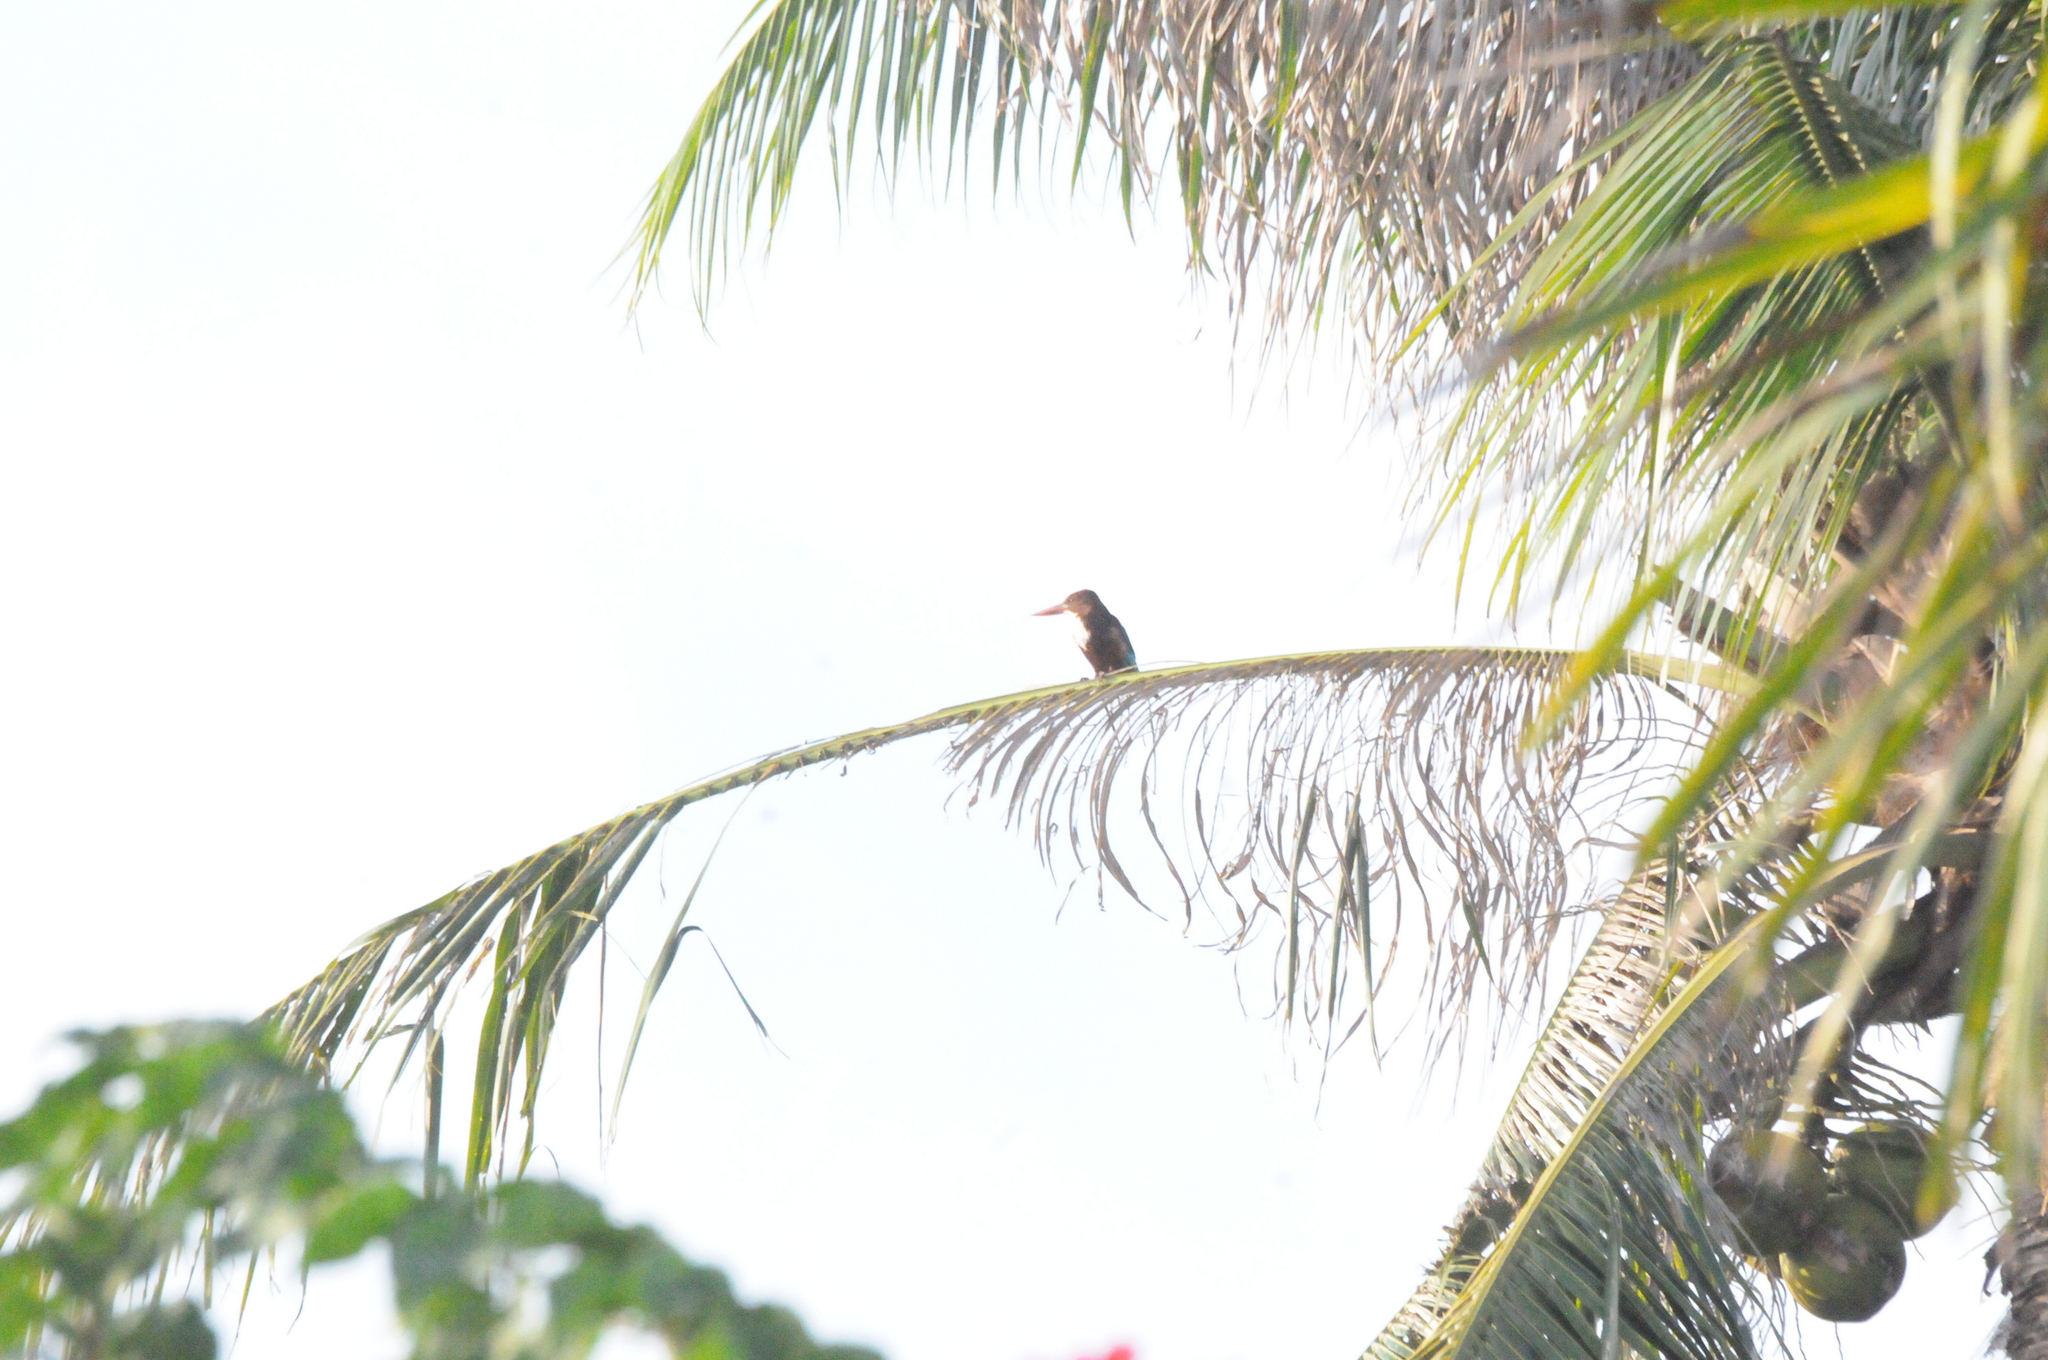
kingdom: Animalia
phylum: Chordata
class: Aves
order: Coraciiformes
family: Alcedinidae
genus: Halcyon
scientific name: Halcyon smyrnensis
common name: White-throated kingfisher
